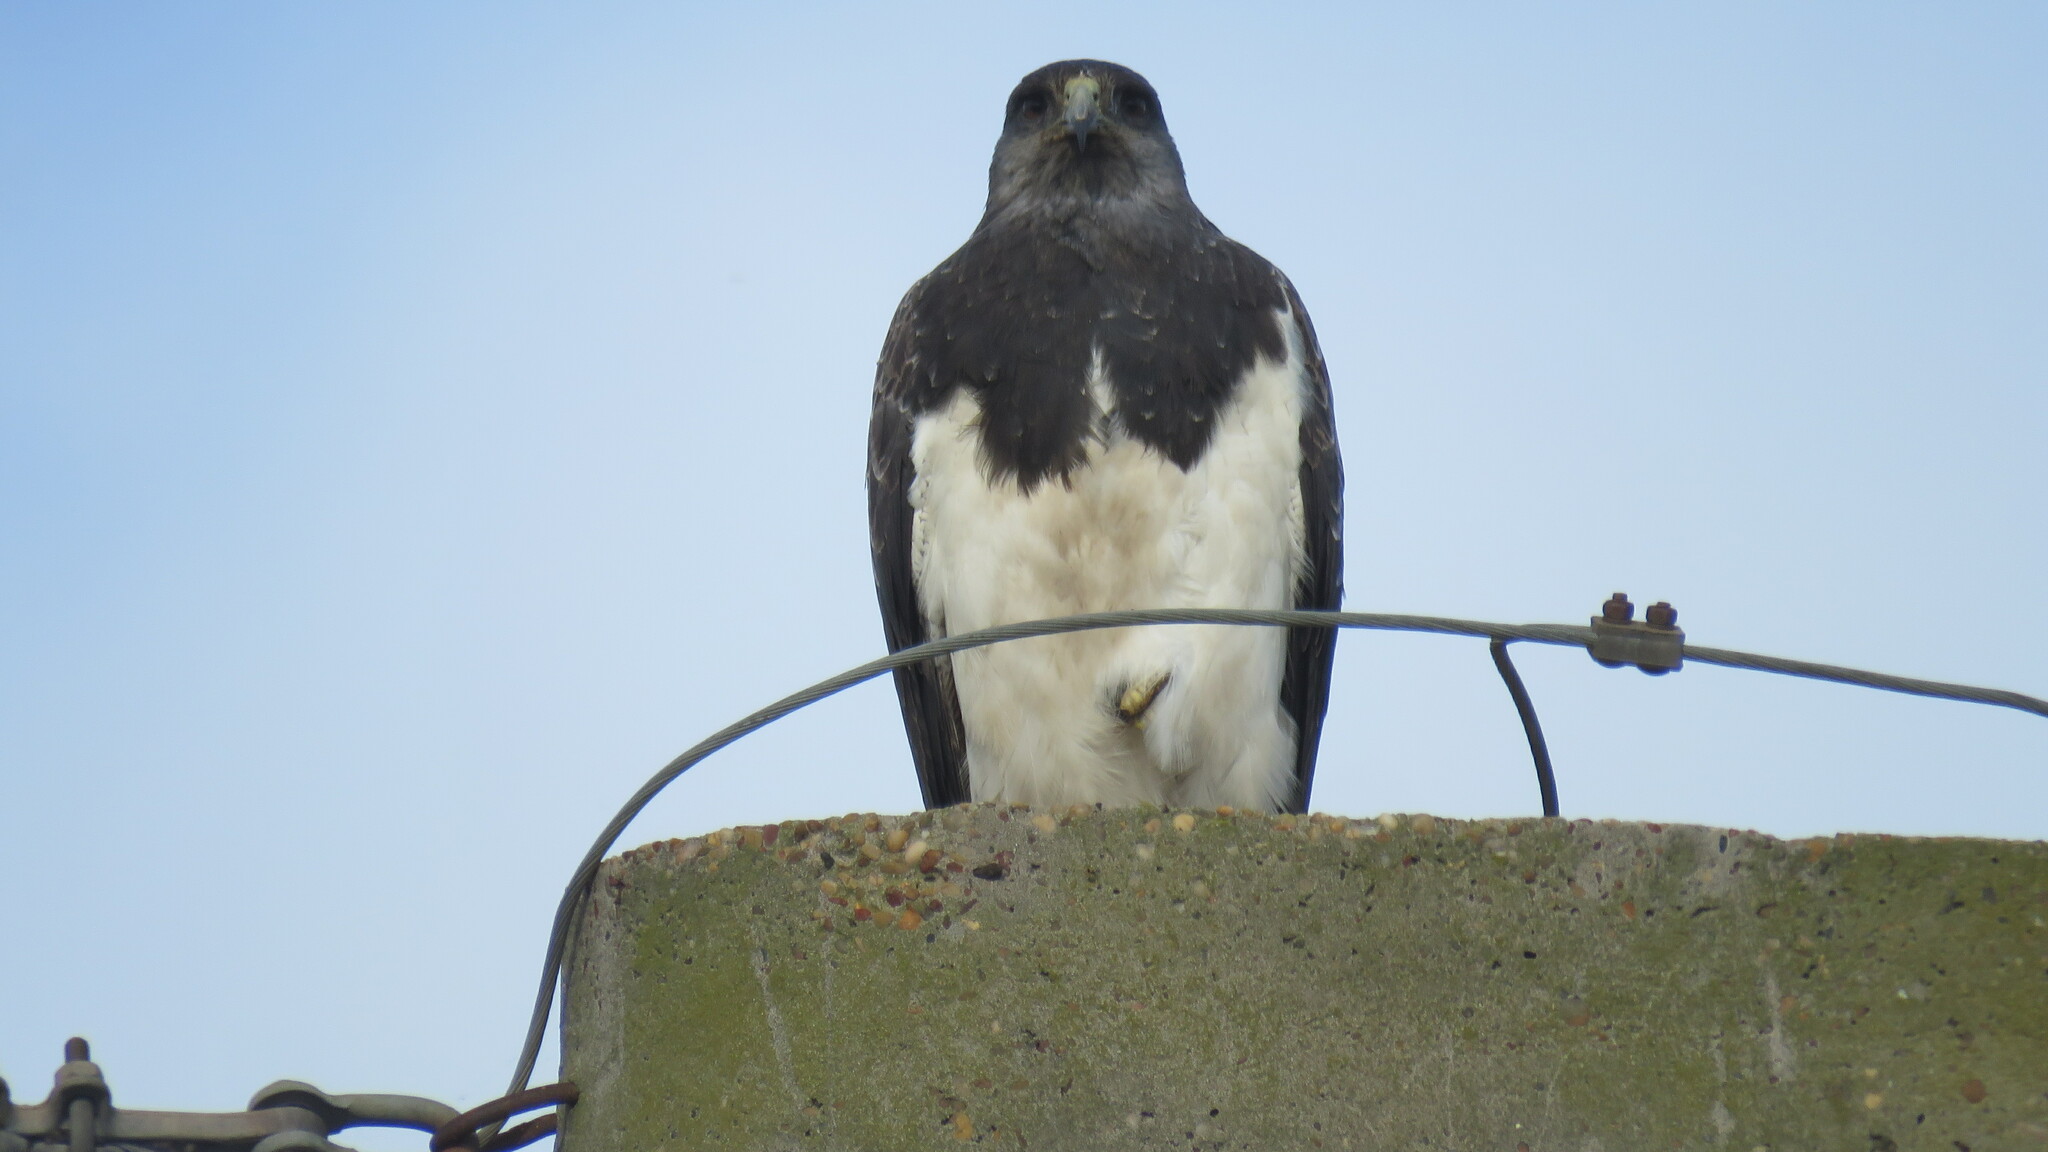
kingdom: Animalia
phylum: Chordata
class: Aves
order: Accipitriformes
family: Accipitridae
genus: Geranoaetus
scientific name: Geranoaetus melanoleucus
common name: Black-chested buzzard-eagle
